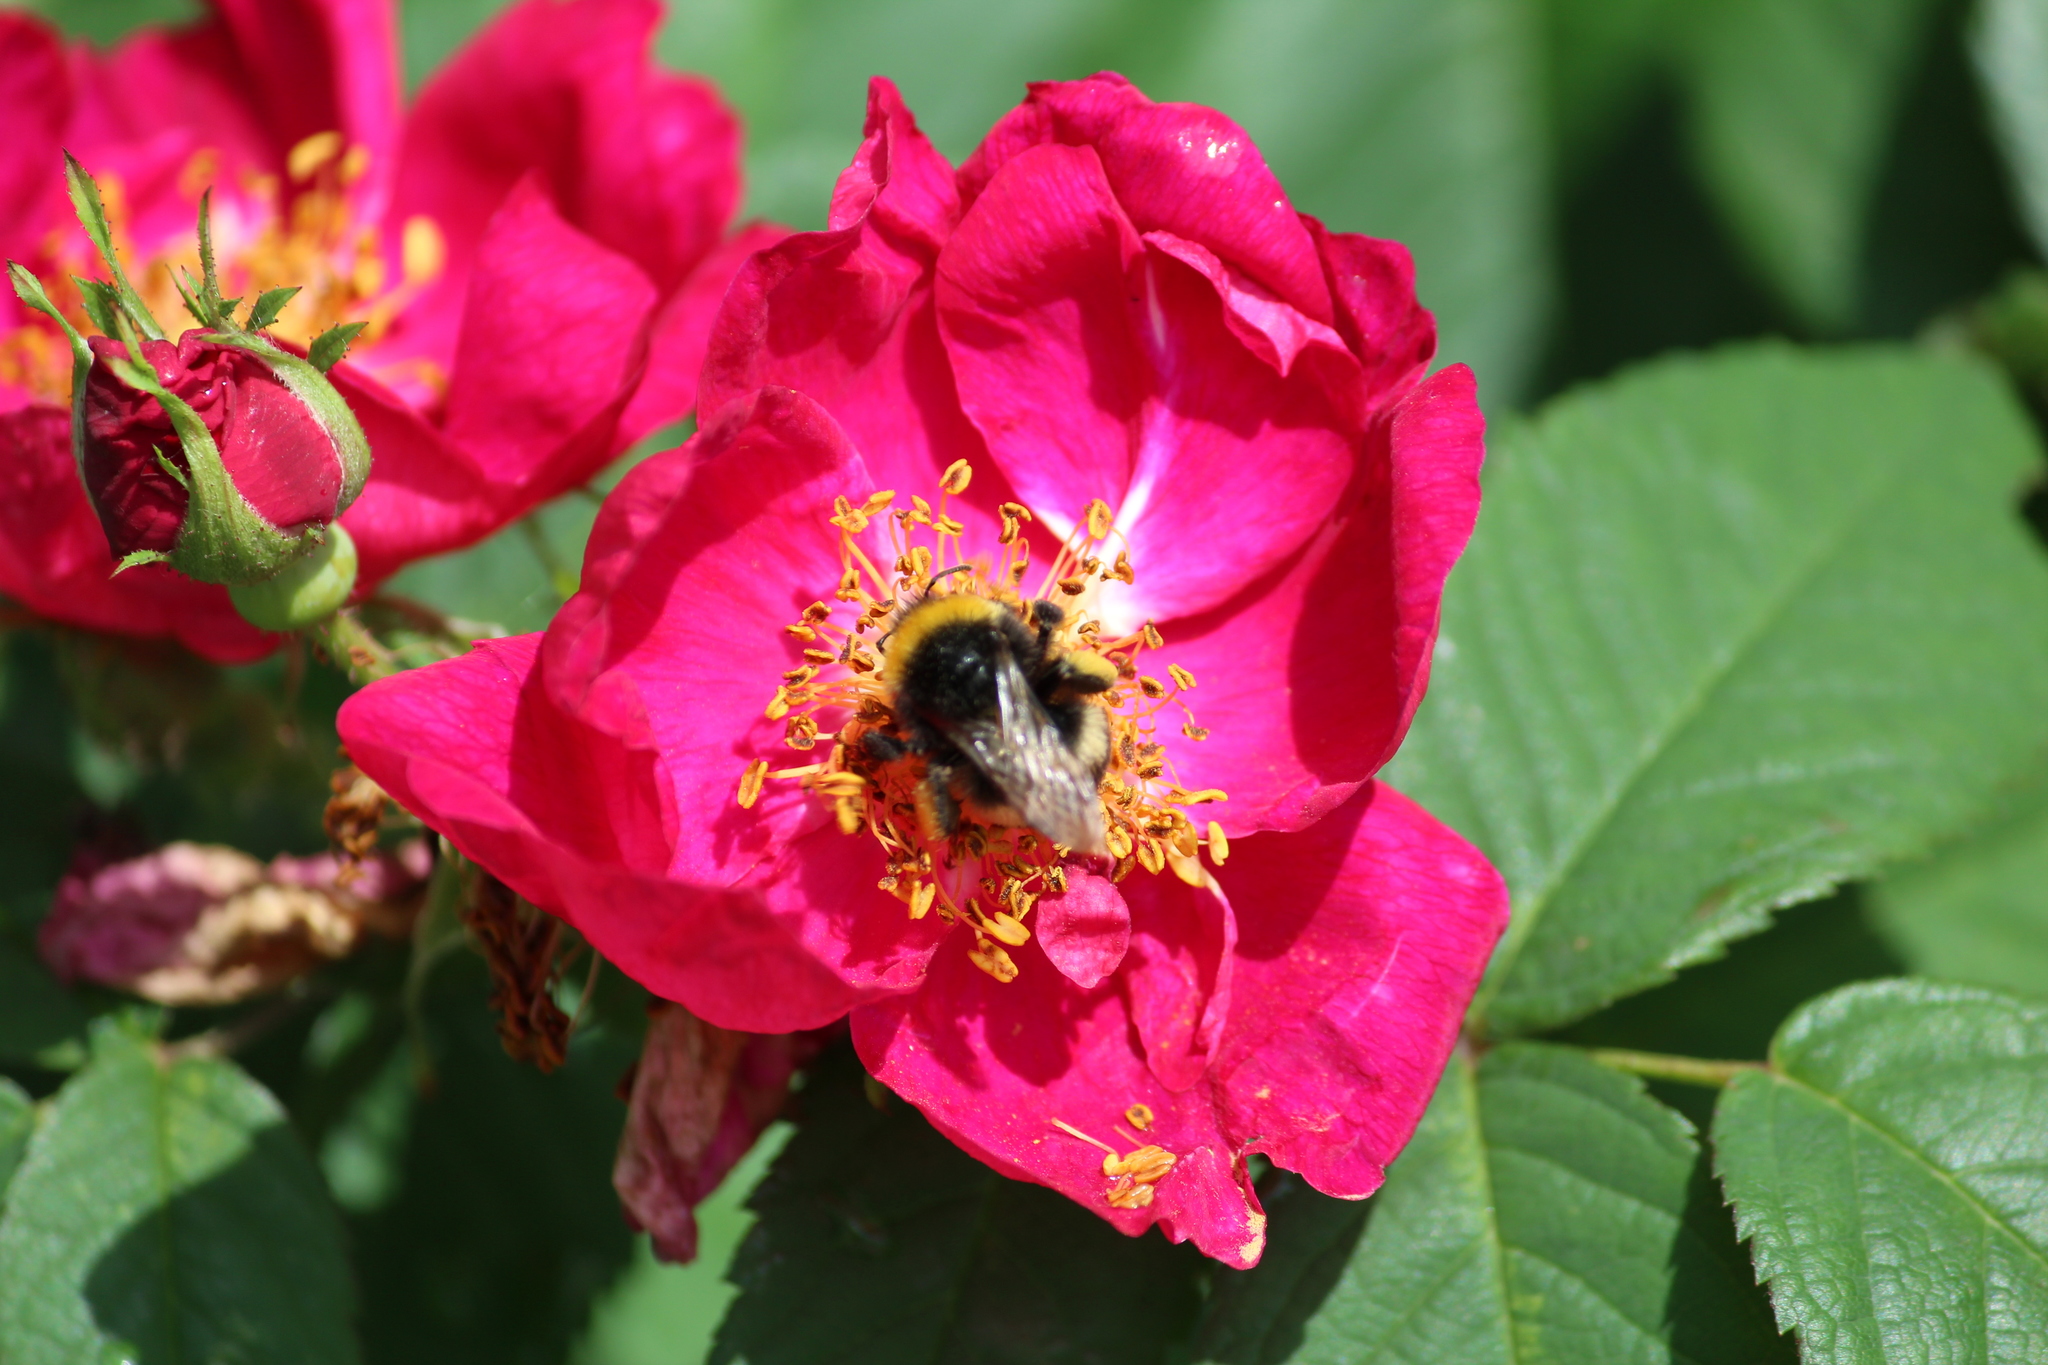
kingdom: Animalia
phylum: Arthropoda
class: Insecta
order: Hymenoptera
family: Apidae
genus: Bombus
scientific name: Bombus
